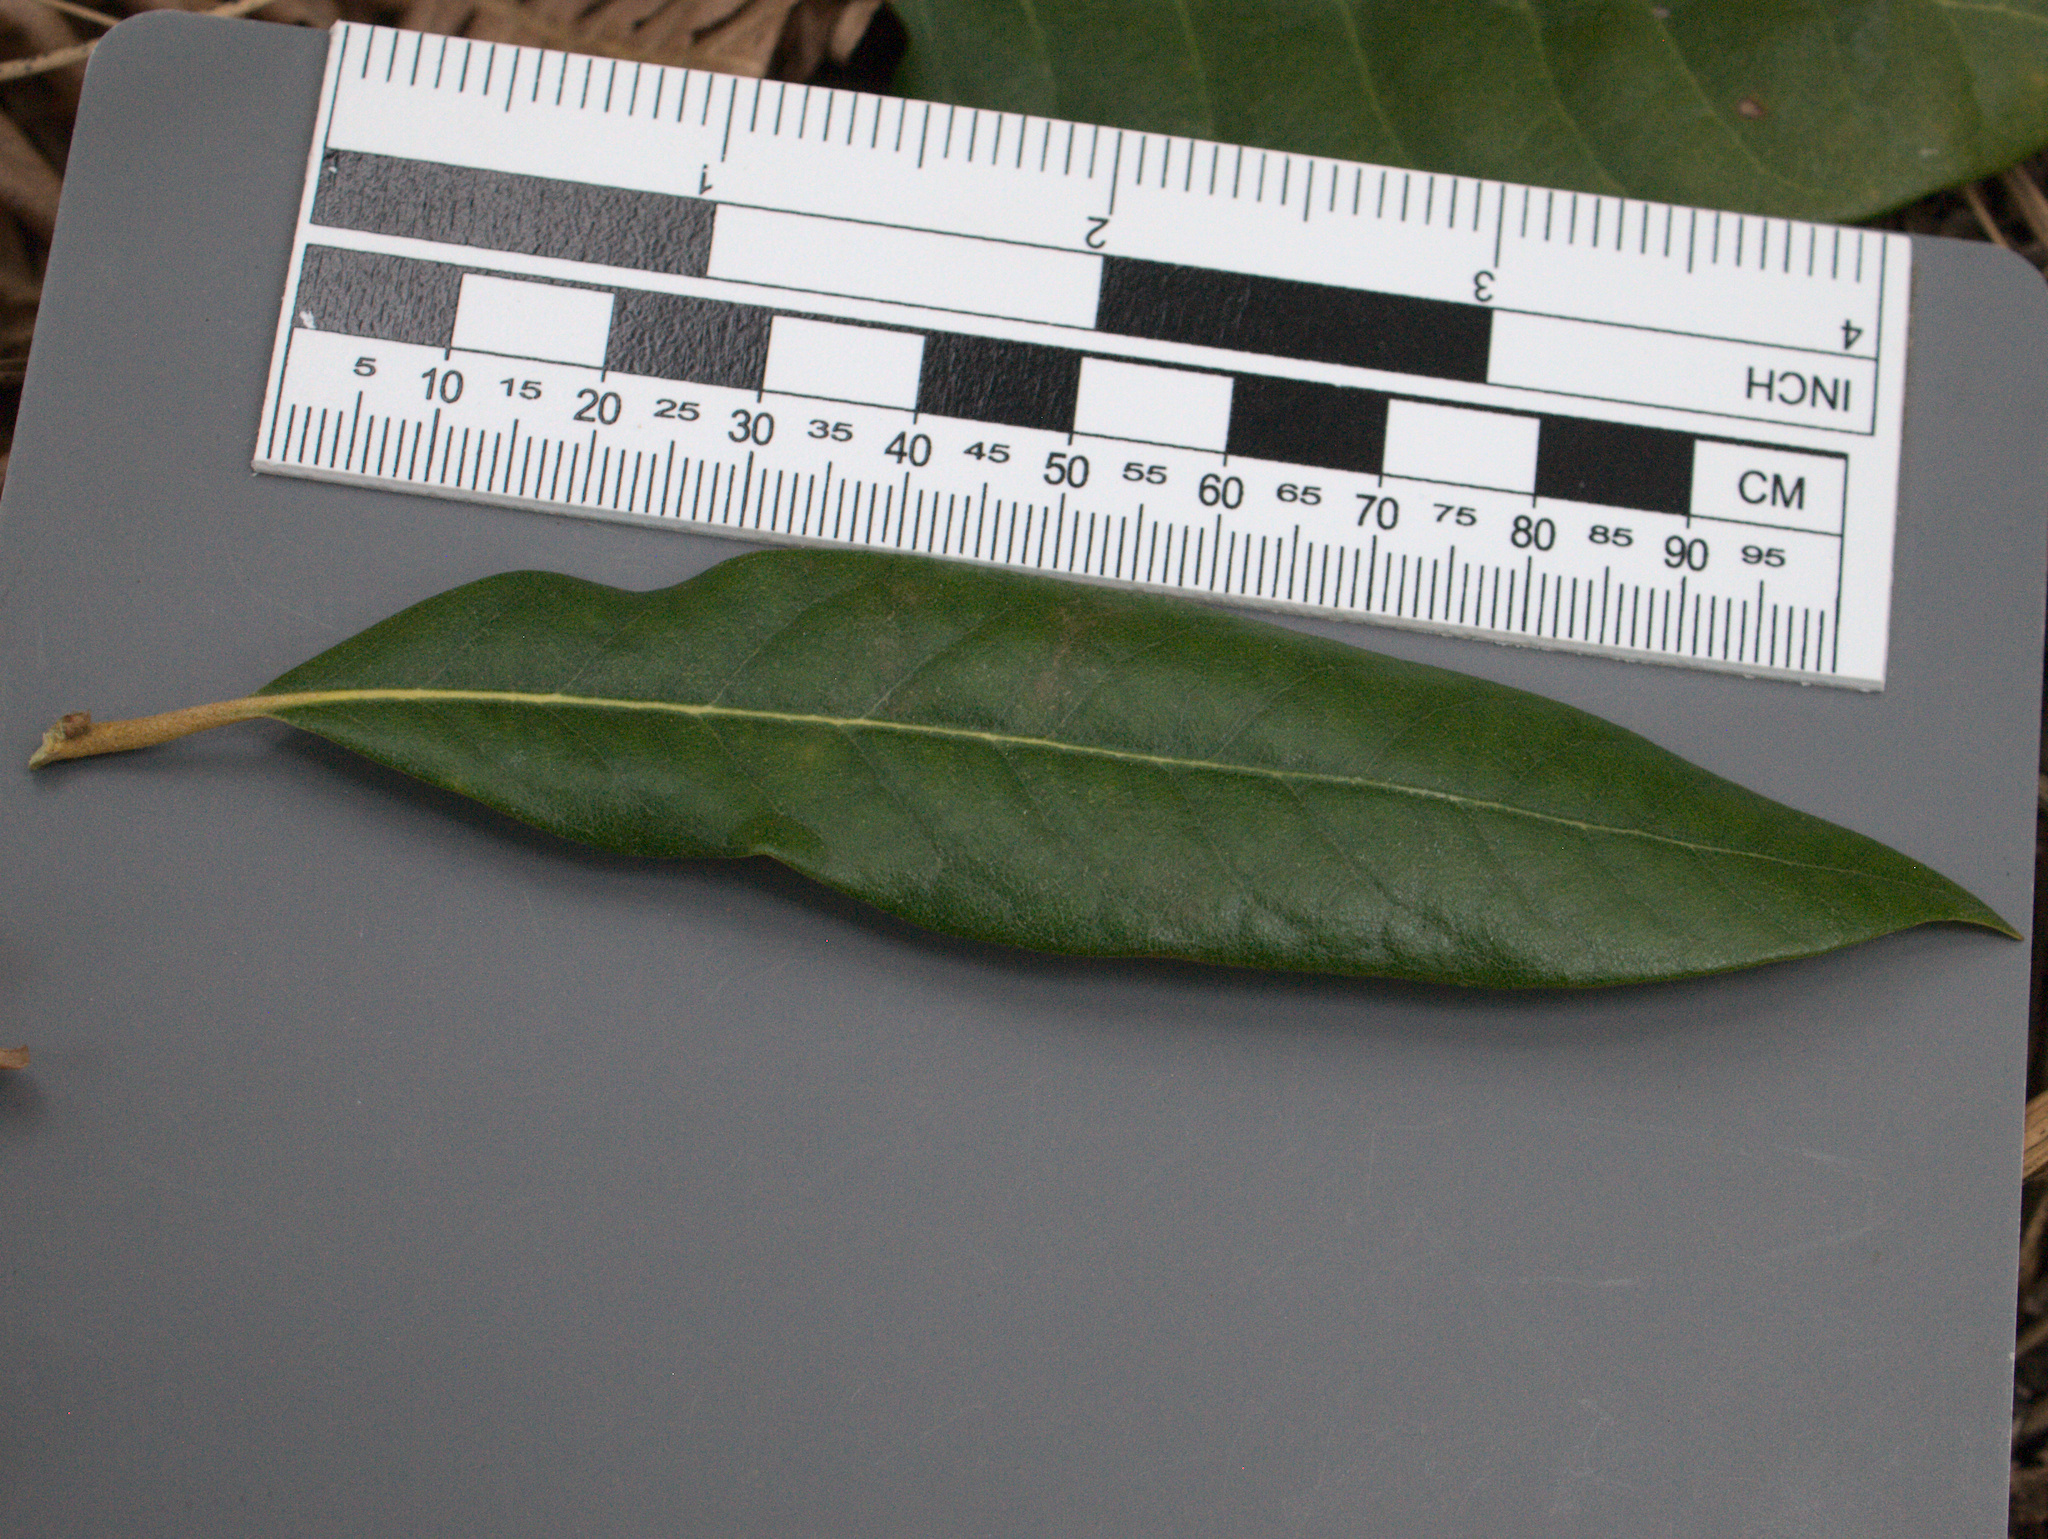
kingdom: Plantae
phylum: Tracheophyta
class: Magnoliopsida
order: Fagales
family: Fagaceae
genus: Chrysolepis
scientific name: Chrysolepis chrysophylla
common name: Giant chinquapin
